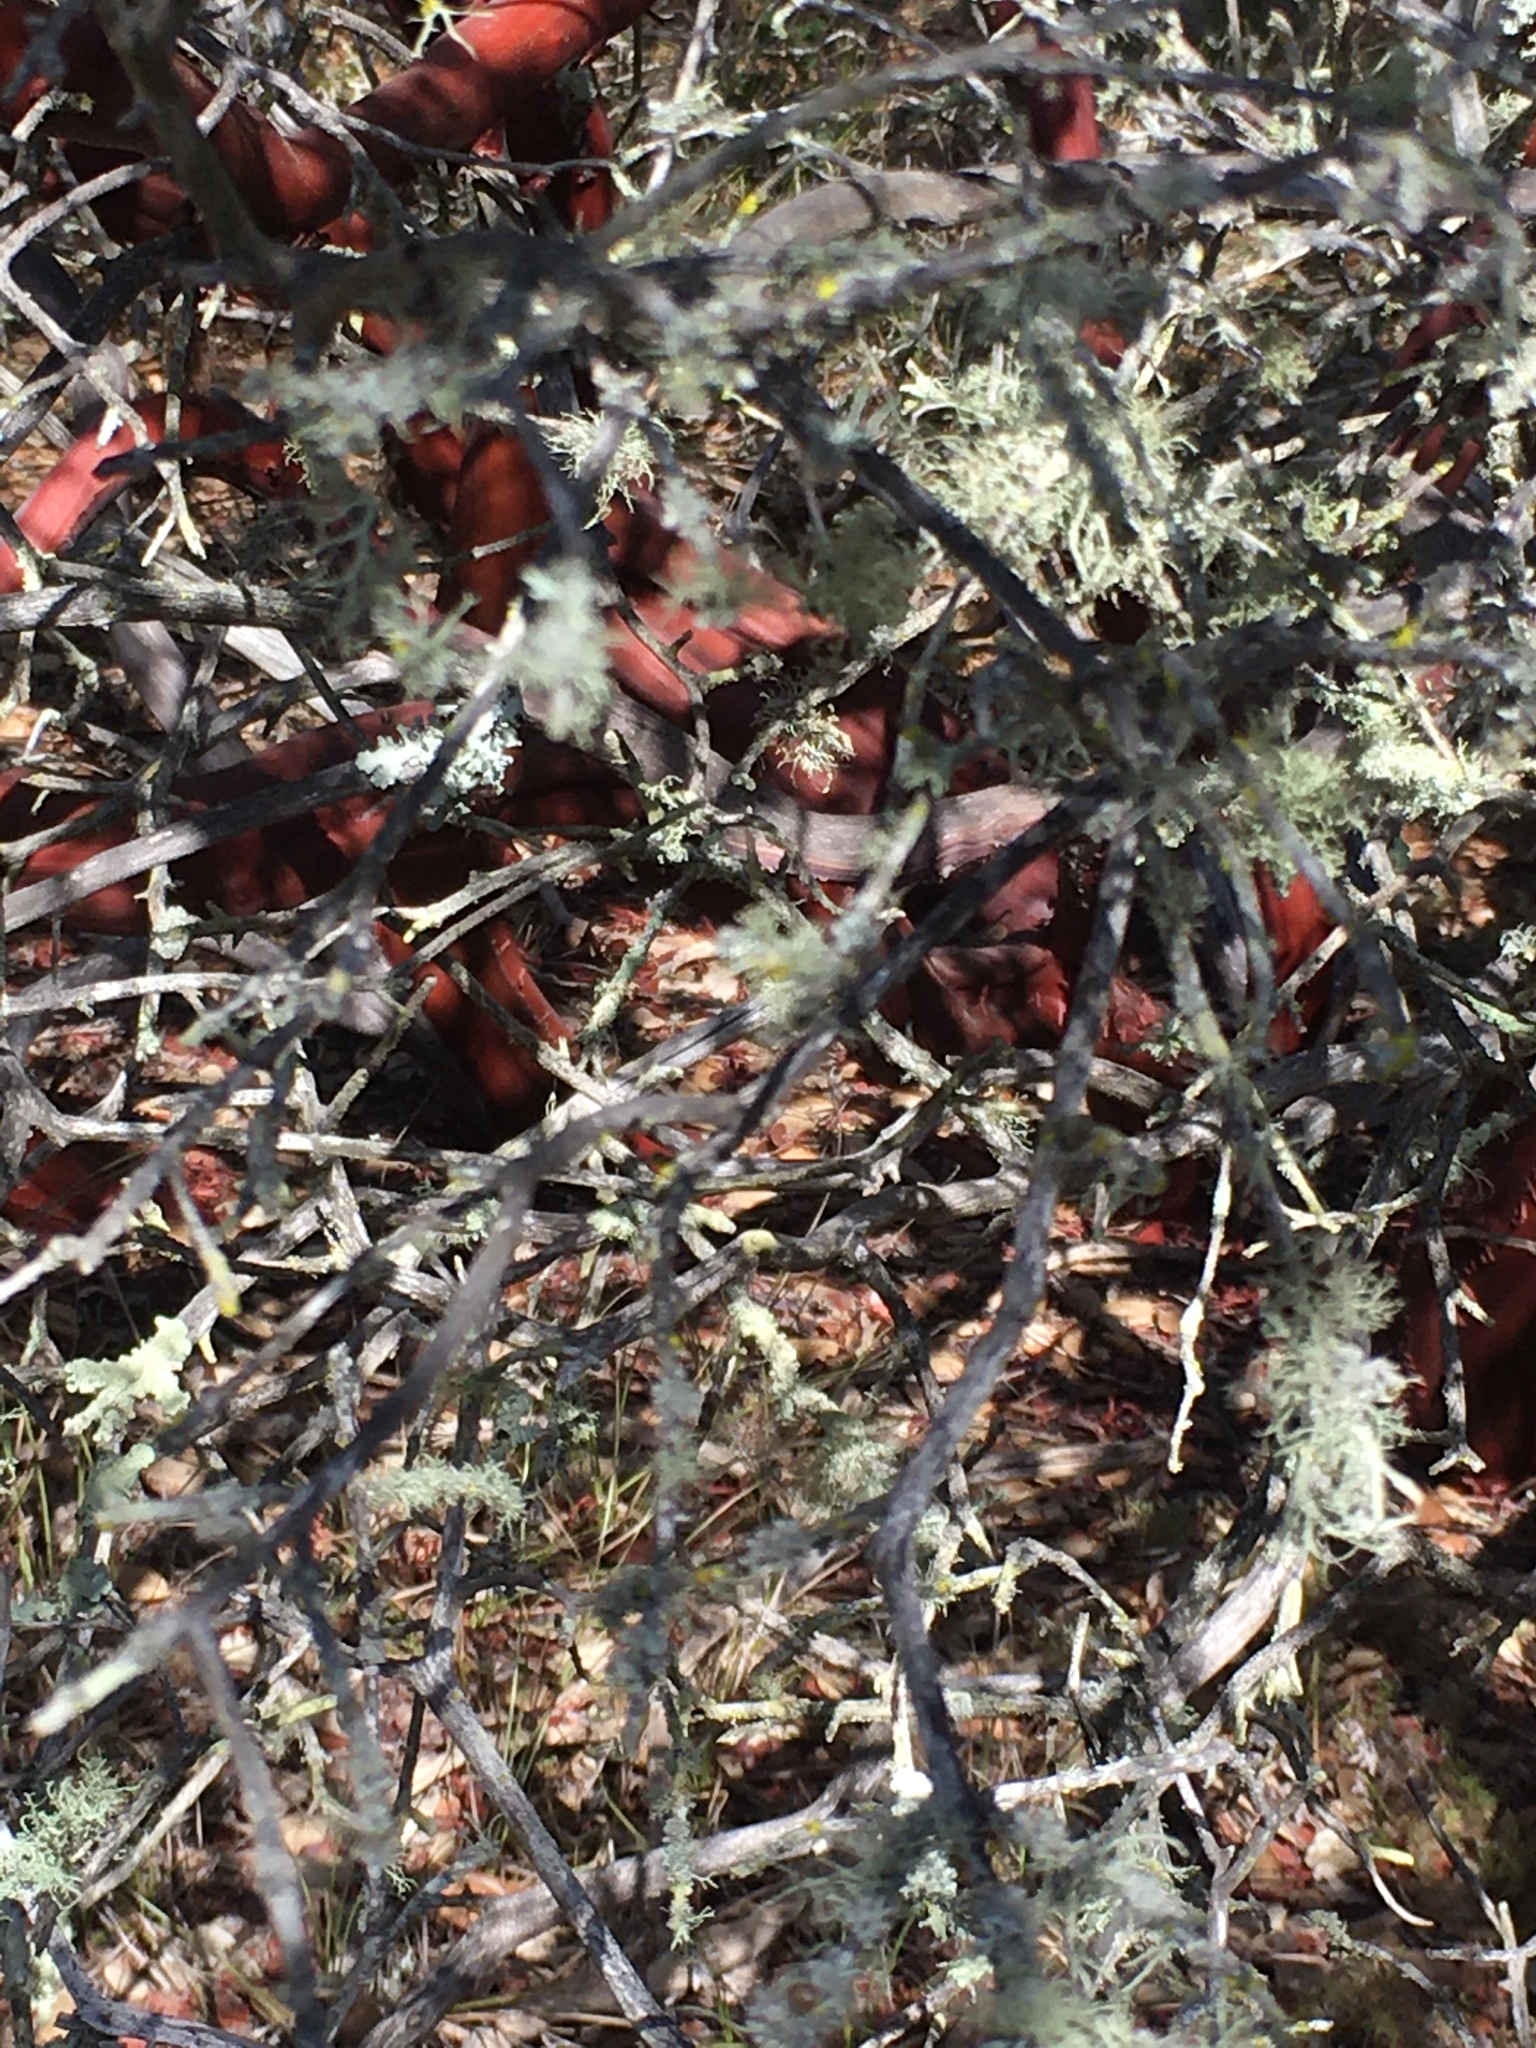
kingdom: Plantae
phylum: Tracheophyta
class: Magnoliopsida
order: Ericales
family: Ericaceae
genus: Arctostaphylos
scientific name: Arctostaphylos purissima
